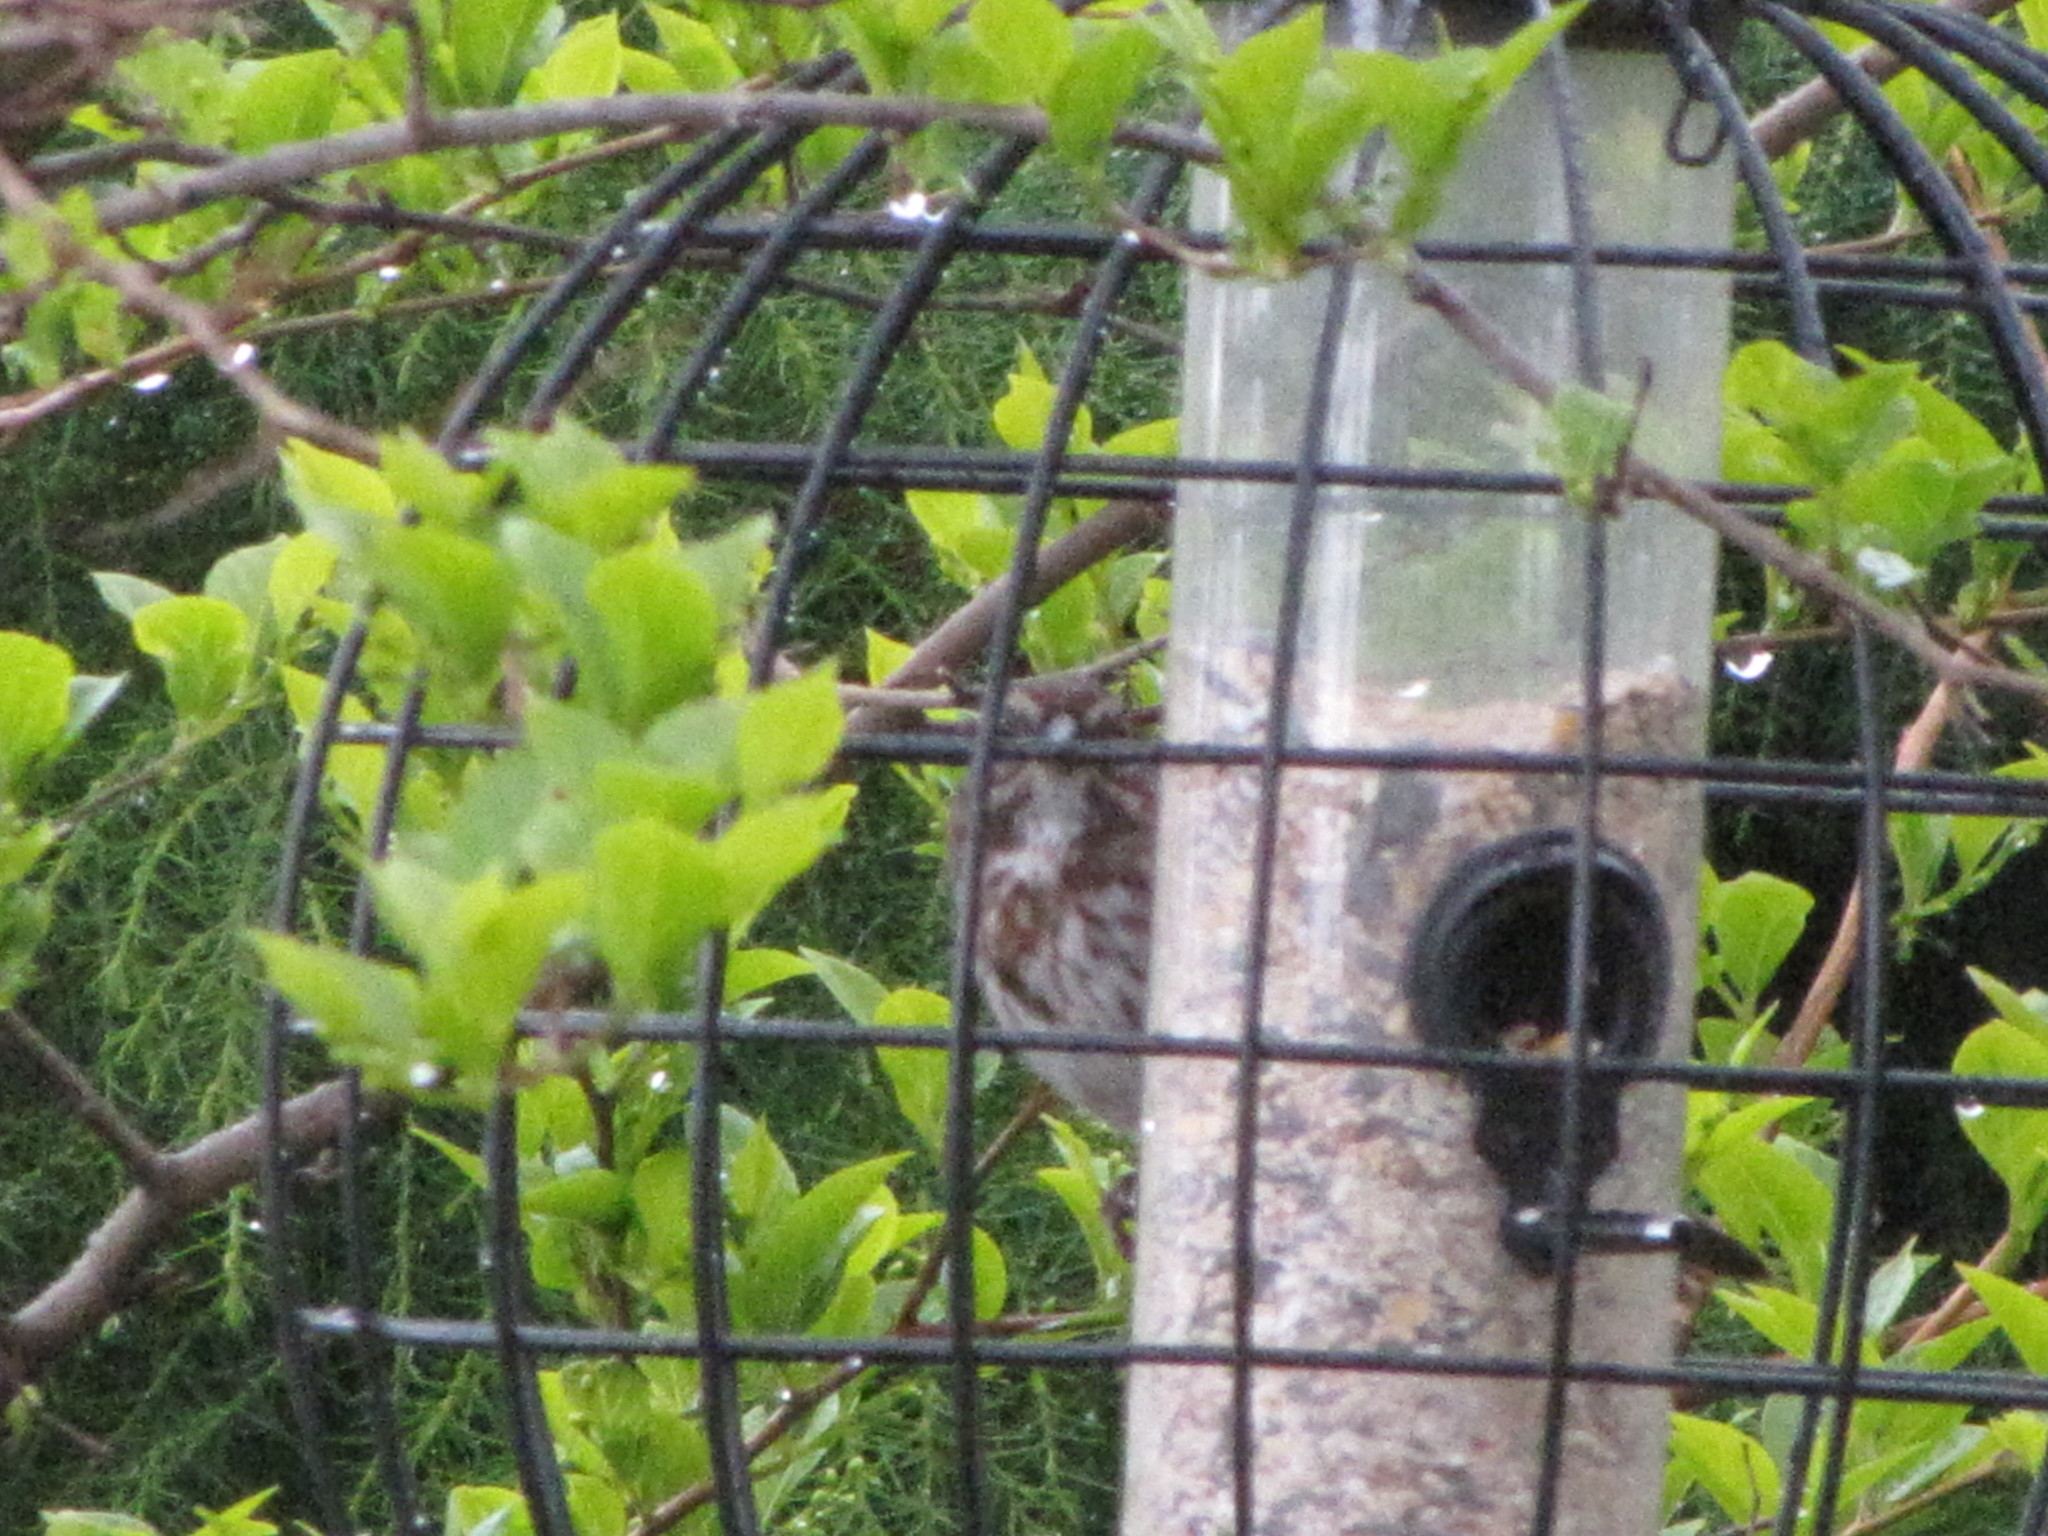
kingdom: Animalia
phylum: Chordata
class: Aves
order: Passeriformes
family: Passerellidae
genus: Melospiza
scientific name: Melospiza melodia
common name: Song sparrow
